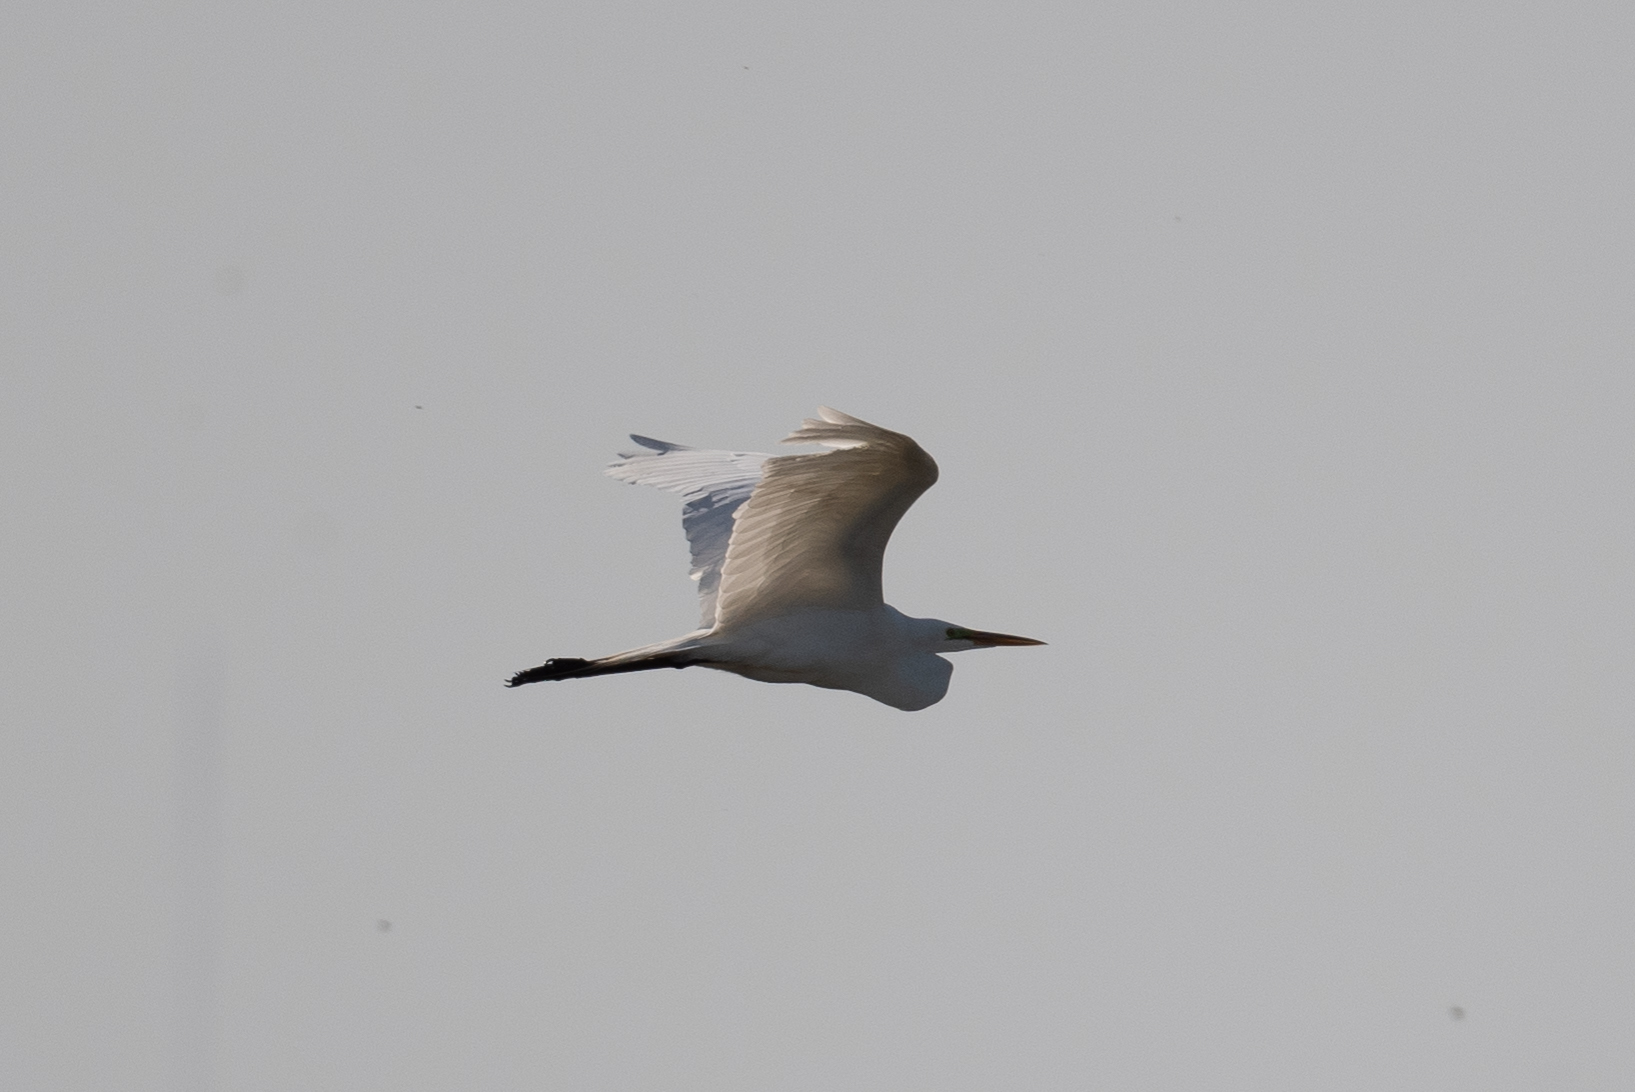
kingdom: Animalia
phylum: Chordata
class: Aves
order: Pelecaniformes
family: Ardeidae
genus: Ardea
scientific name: Ardea alba
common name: Great egret
